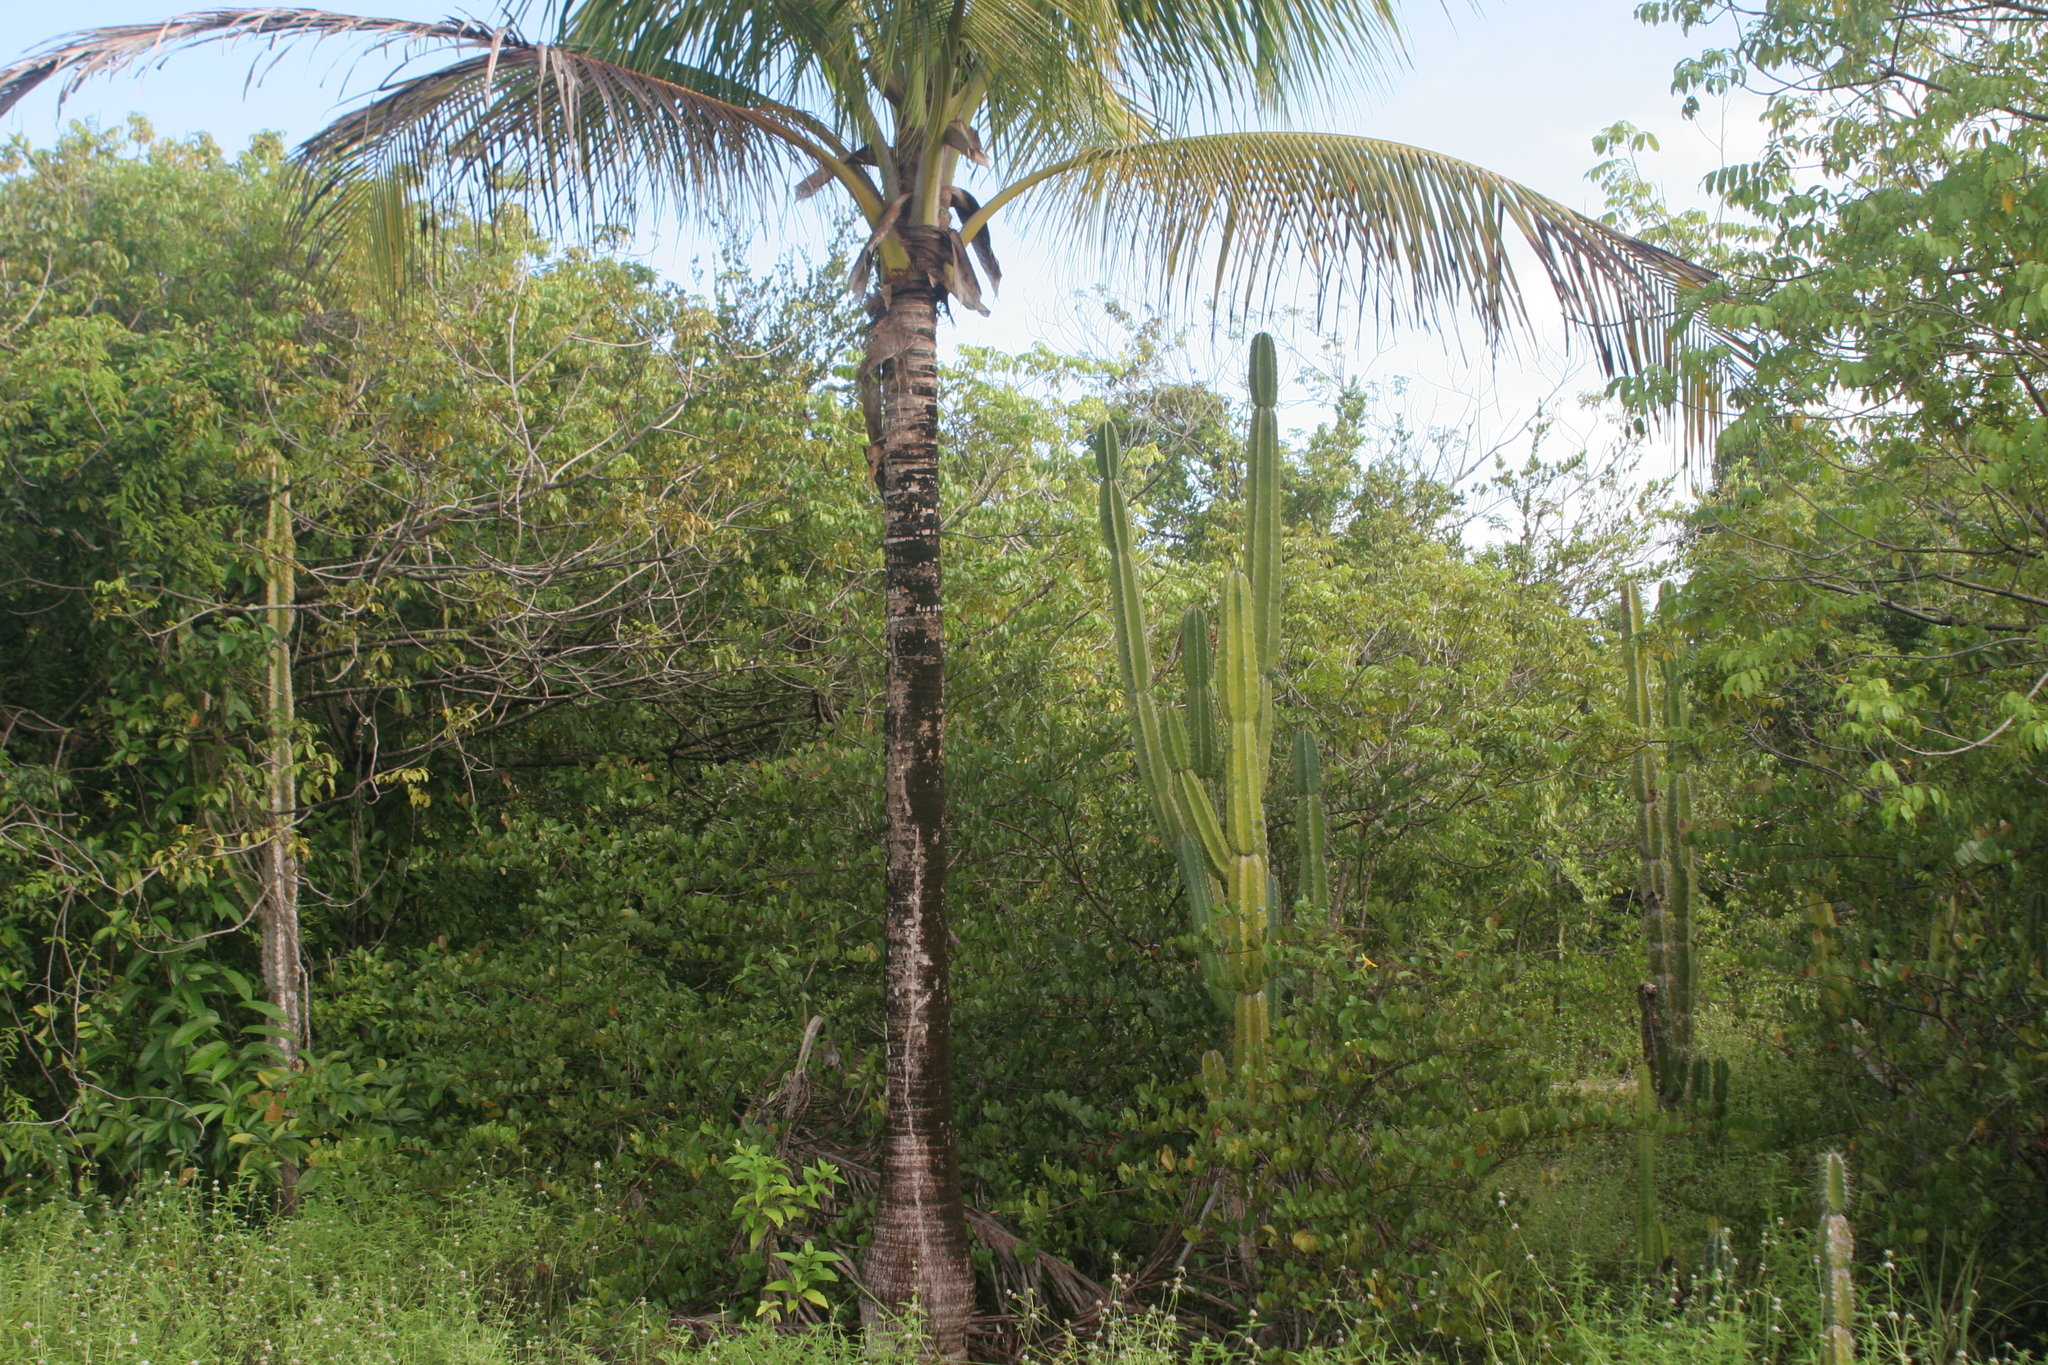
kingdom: Plantae
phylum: Tracheophyta
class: Liliopsida
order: Arecales
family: Arecaceae
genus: Cocos
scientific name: Cocos nucifera
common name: Coconut palm
